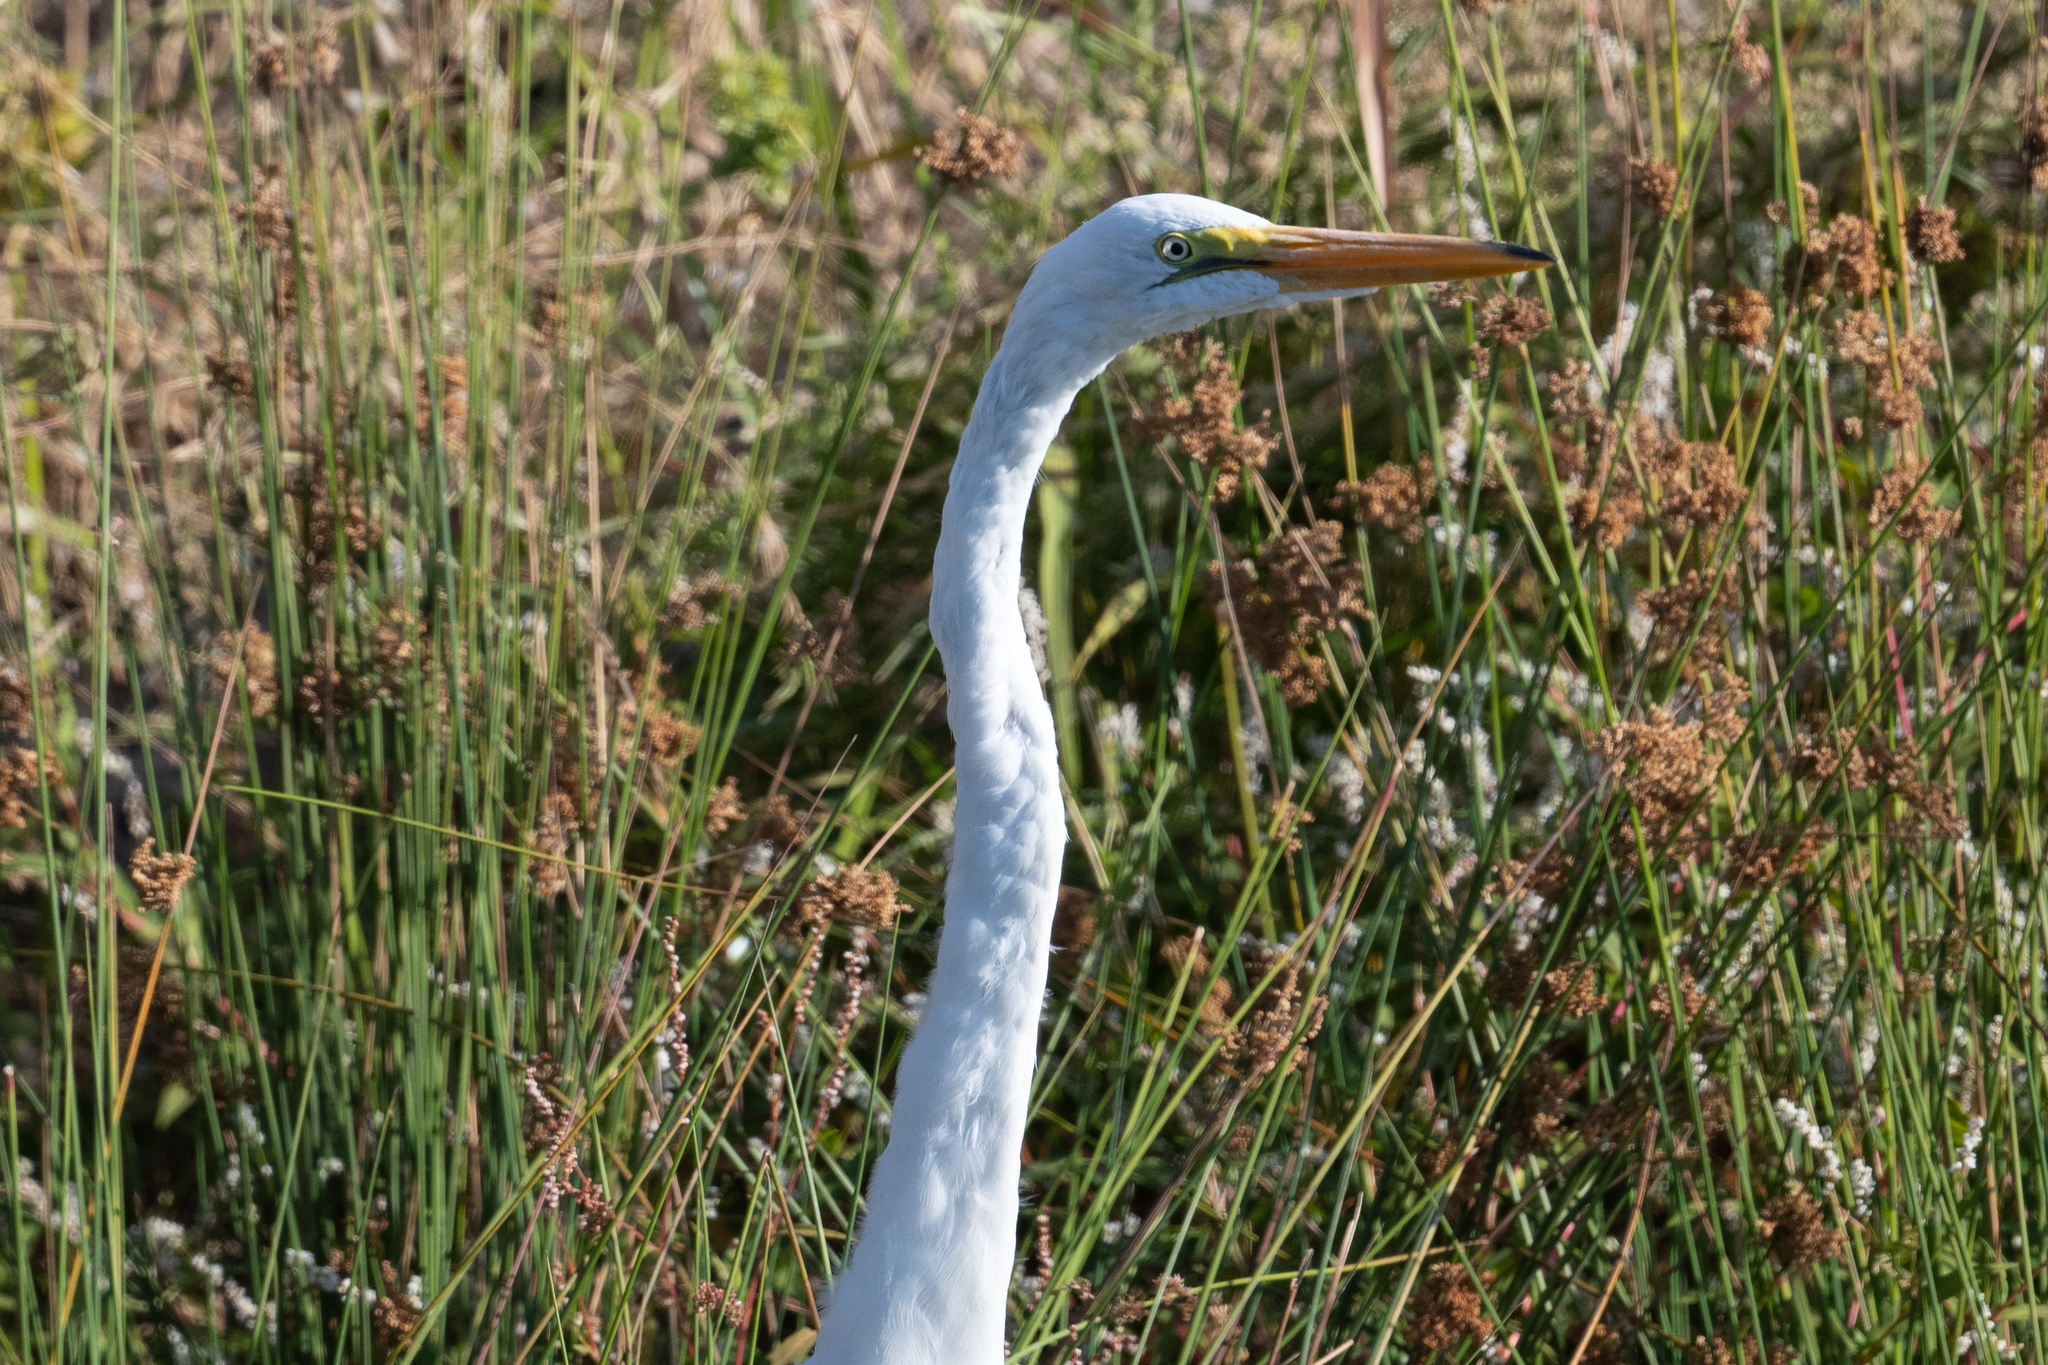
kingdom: Animalia
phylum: Chordata
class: Aves
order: Pelecaniformes
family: Ardeidae
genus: Ardea
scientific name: Ardea alba
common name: Great egret
